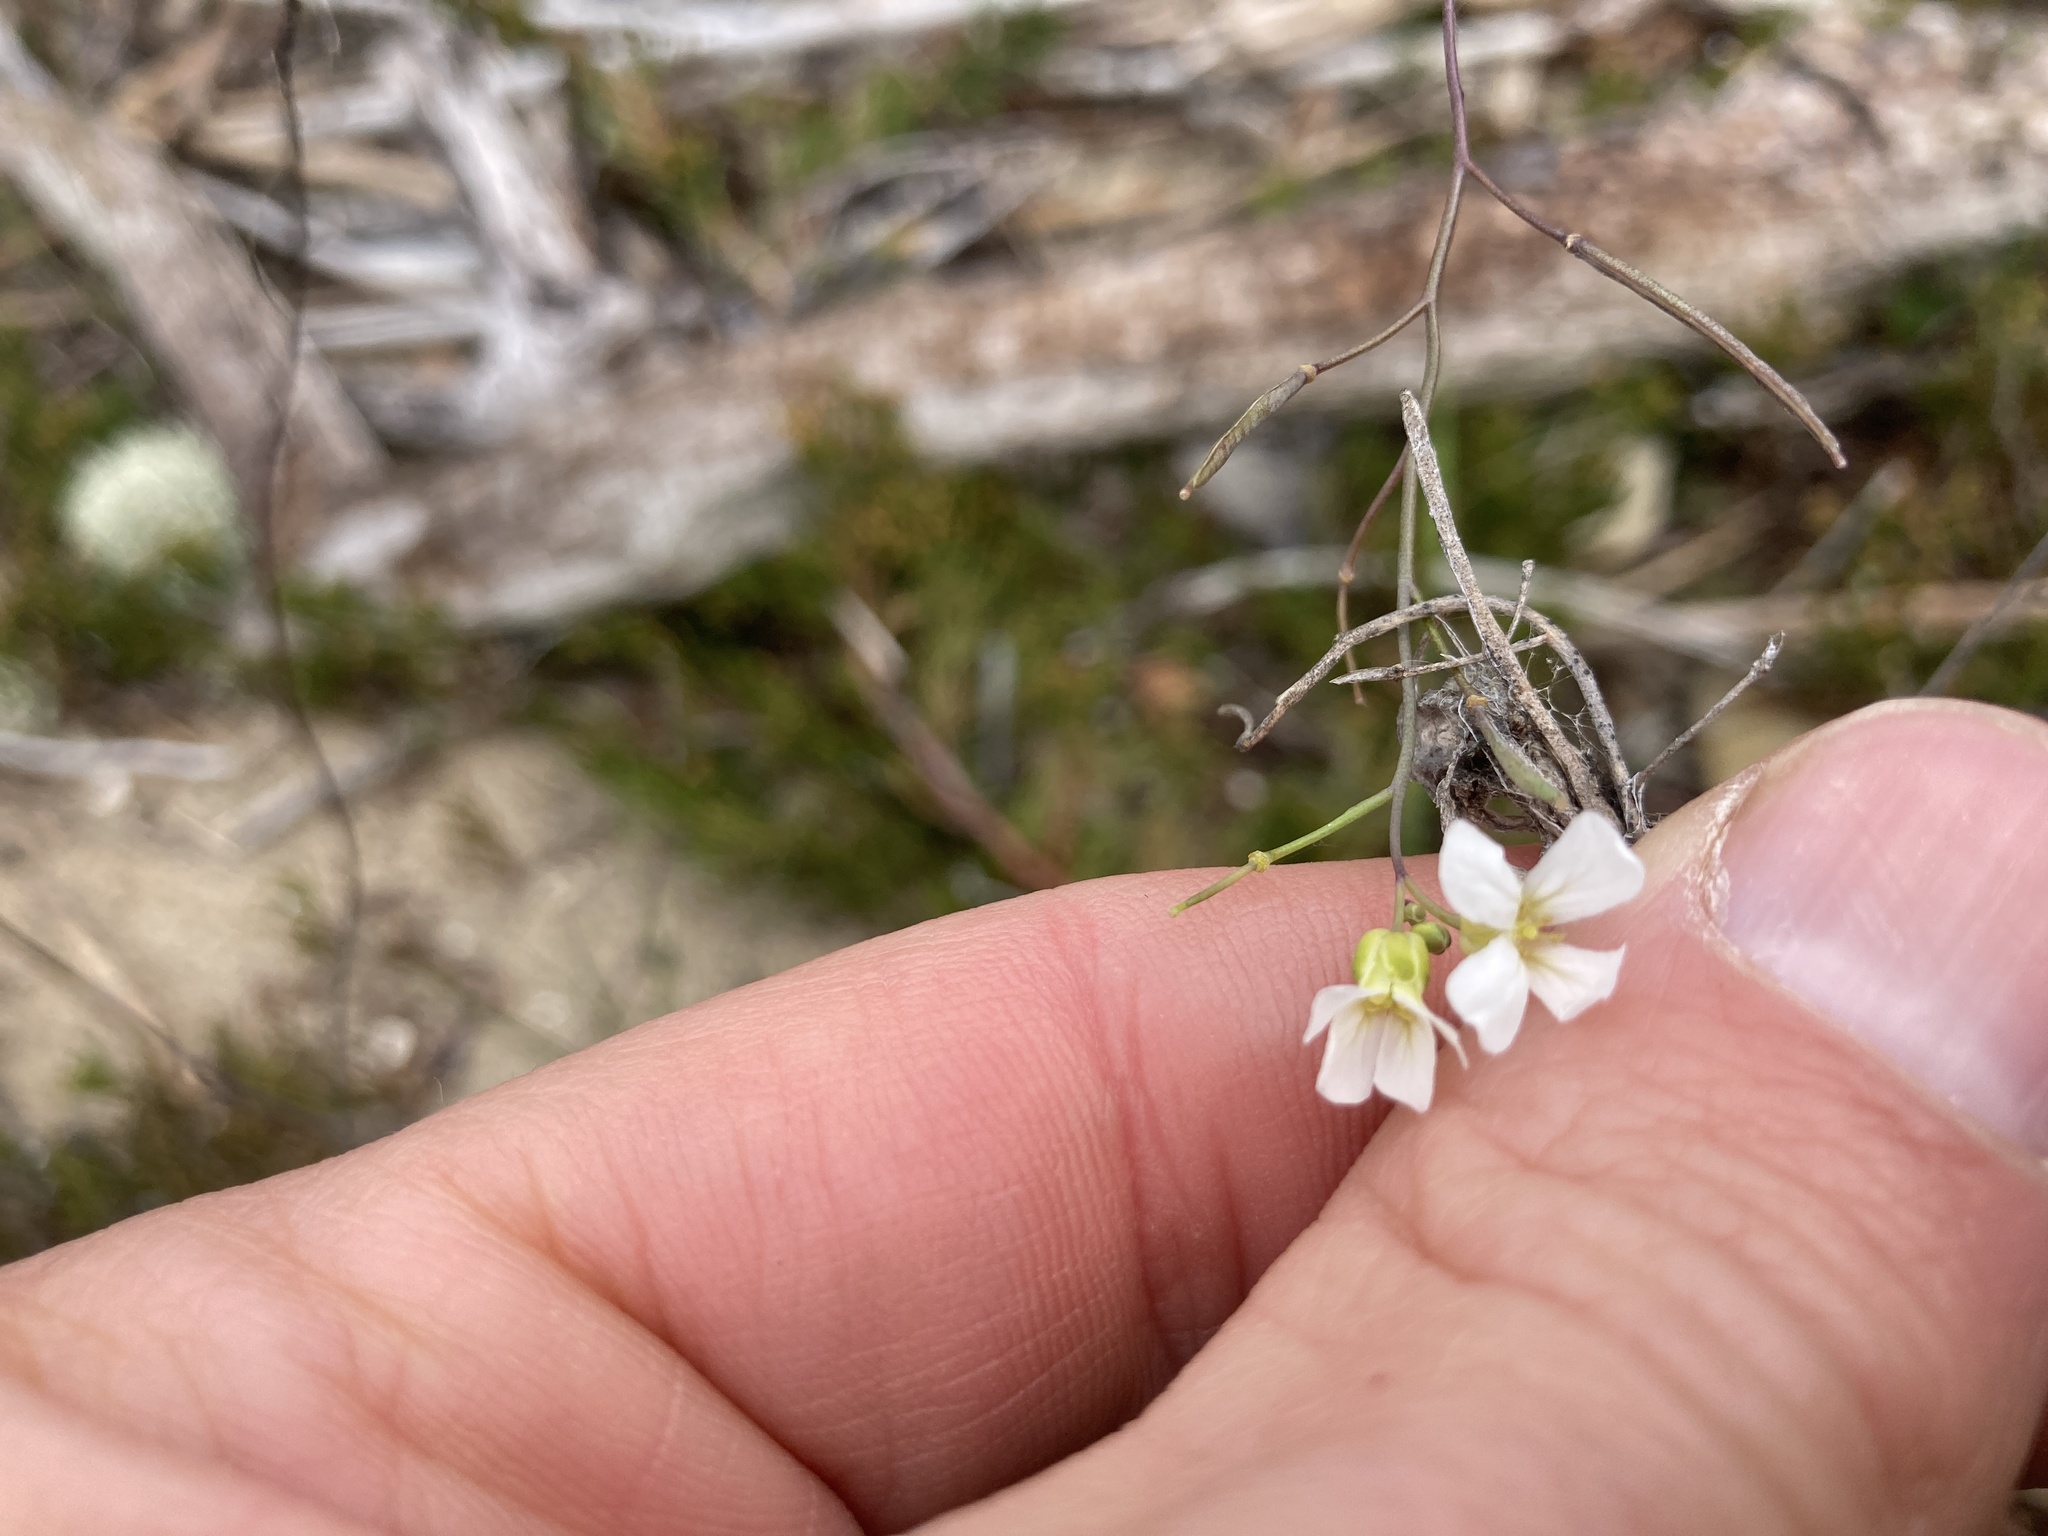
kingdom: Plantae
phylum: Tracheophyta
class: Magnoliopsida
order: Brassicales
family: Brassicaceae
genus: Arabidopsis
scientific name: Arabidopsis lyrata
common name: Lyrate rockcress
